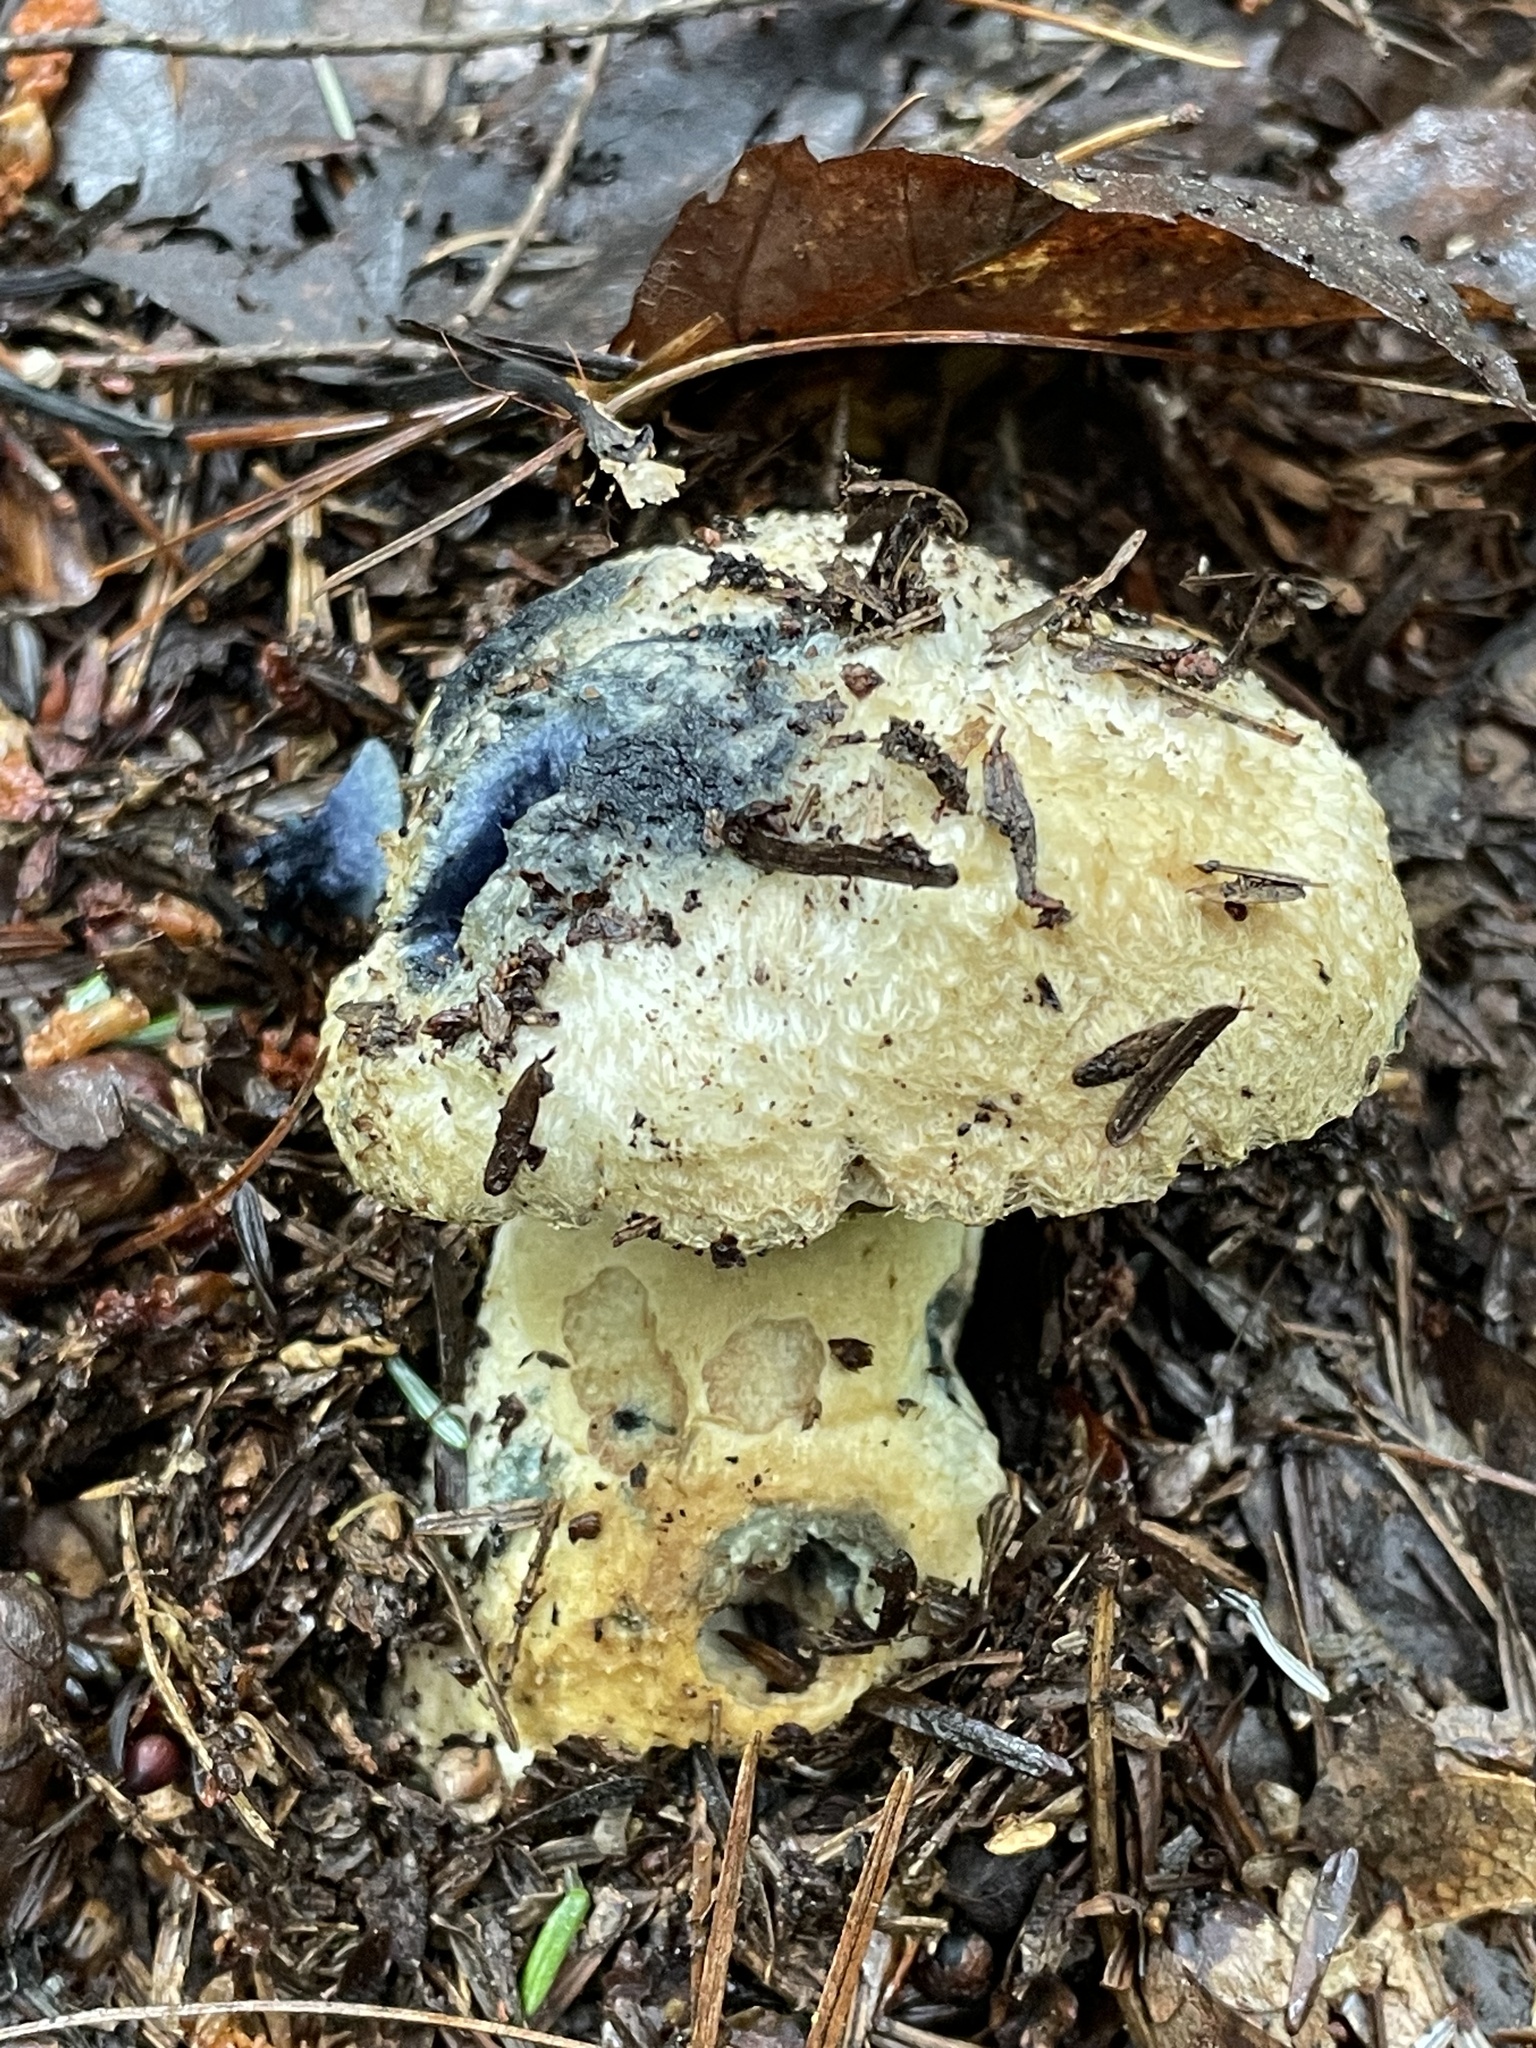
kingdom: Fungi
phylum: Basidiomycota
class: Agaricomycetes
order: Boletales
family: Gyroporaceae
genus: Gyroporus
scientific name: Gyroporus cyanescens
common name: Cornflower bolete
